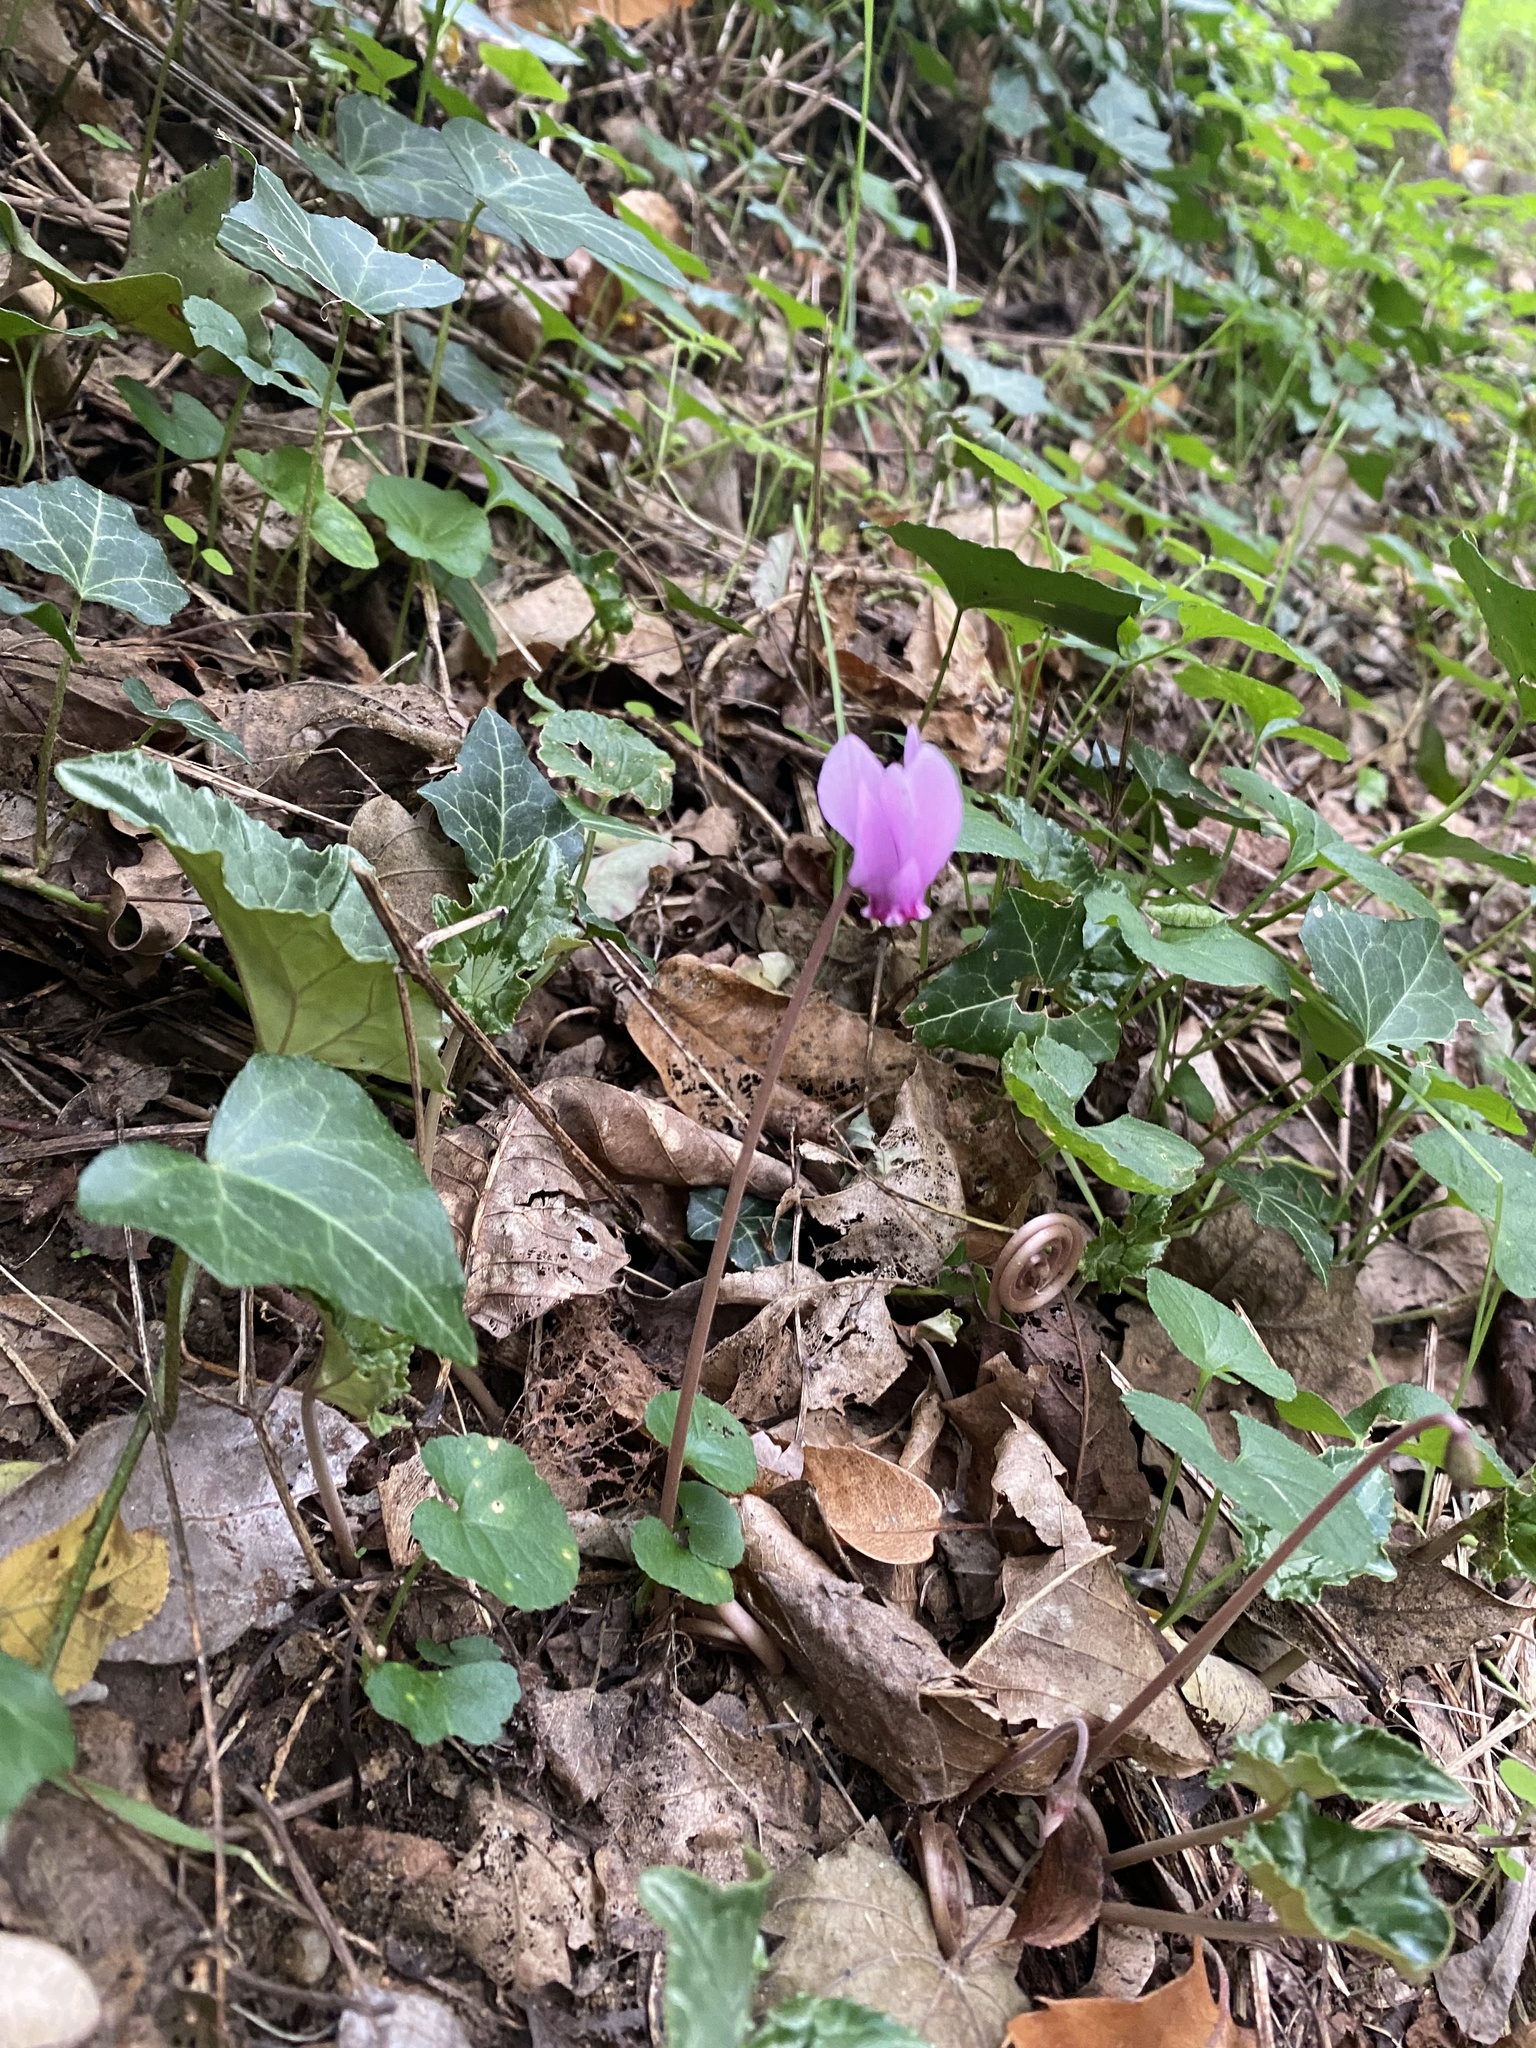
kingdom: Plantae
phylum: Tracheophyta
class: Magnoliopsida
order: Ericales
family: Primulaceae
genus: Cyclamen
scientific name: Cyclamen hederifolium
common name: Sowbread
